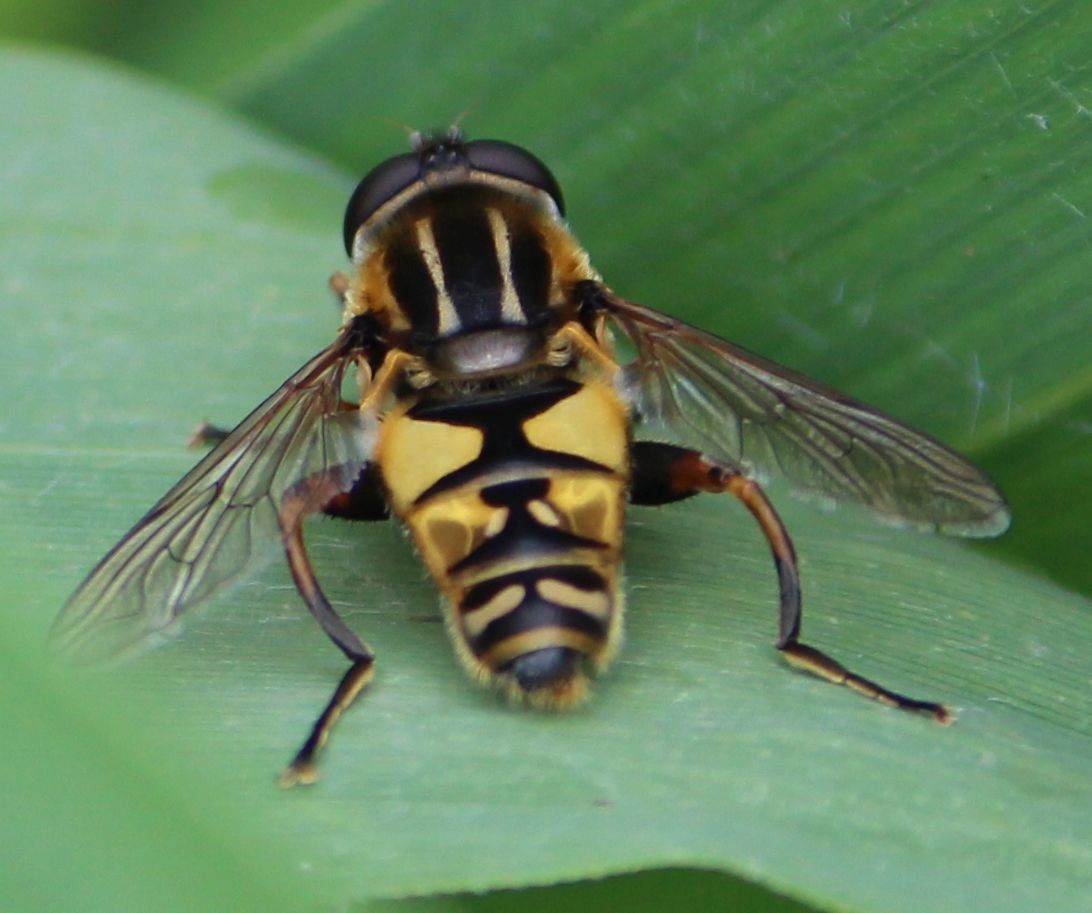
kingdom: Animalia
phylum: Arthropoda
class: Insecta
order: Diptera
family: Syrphidae
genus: Helophilus
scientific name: Helophilus pendulus
